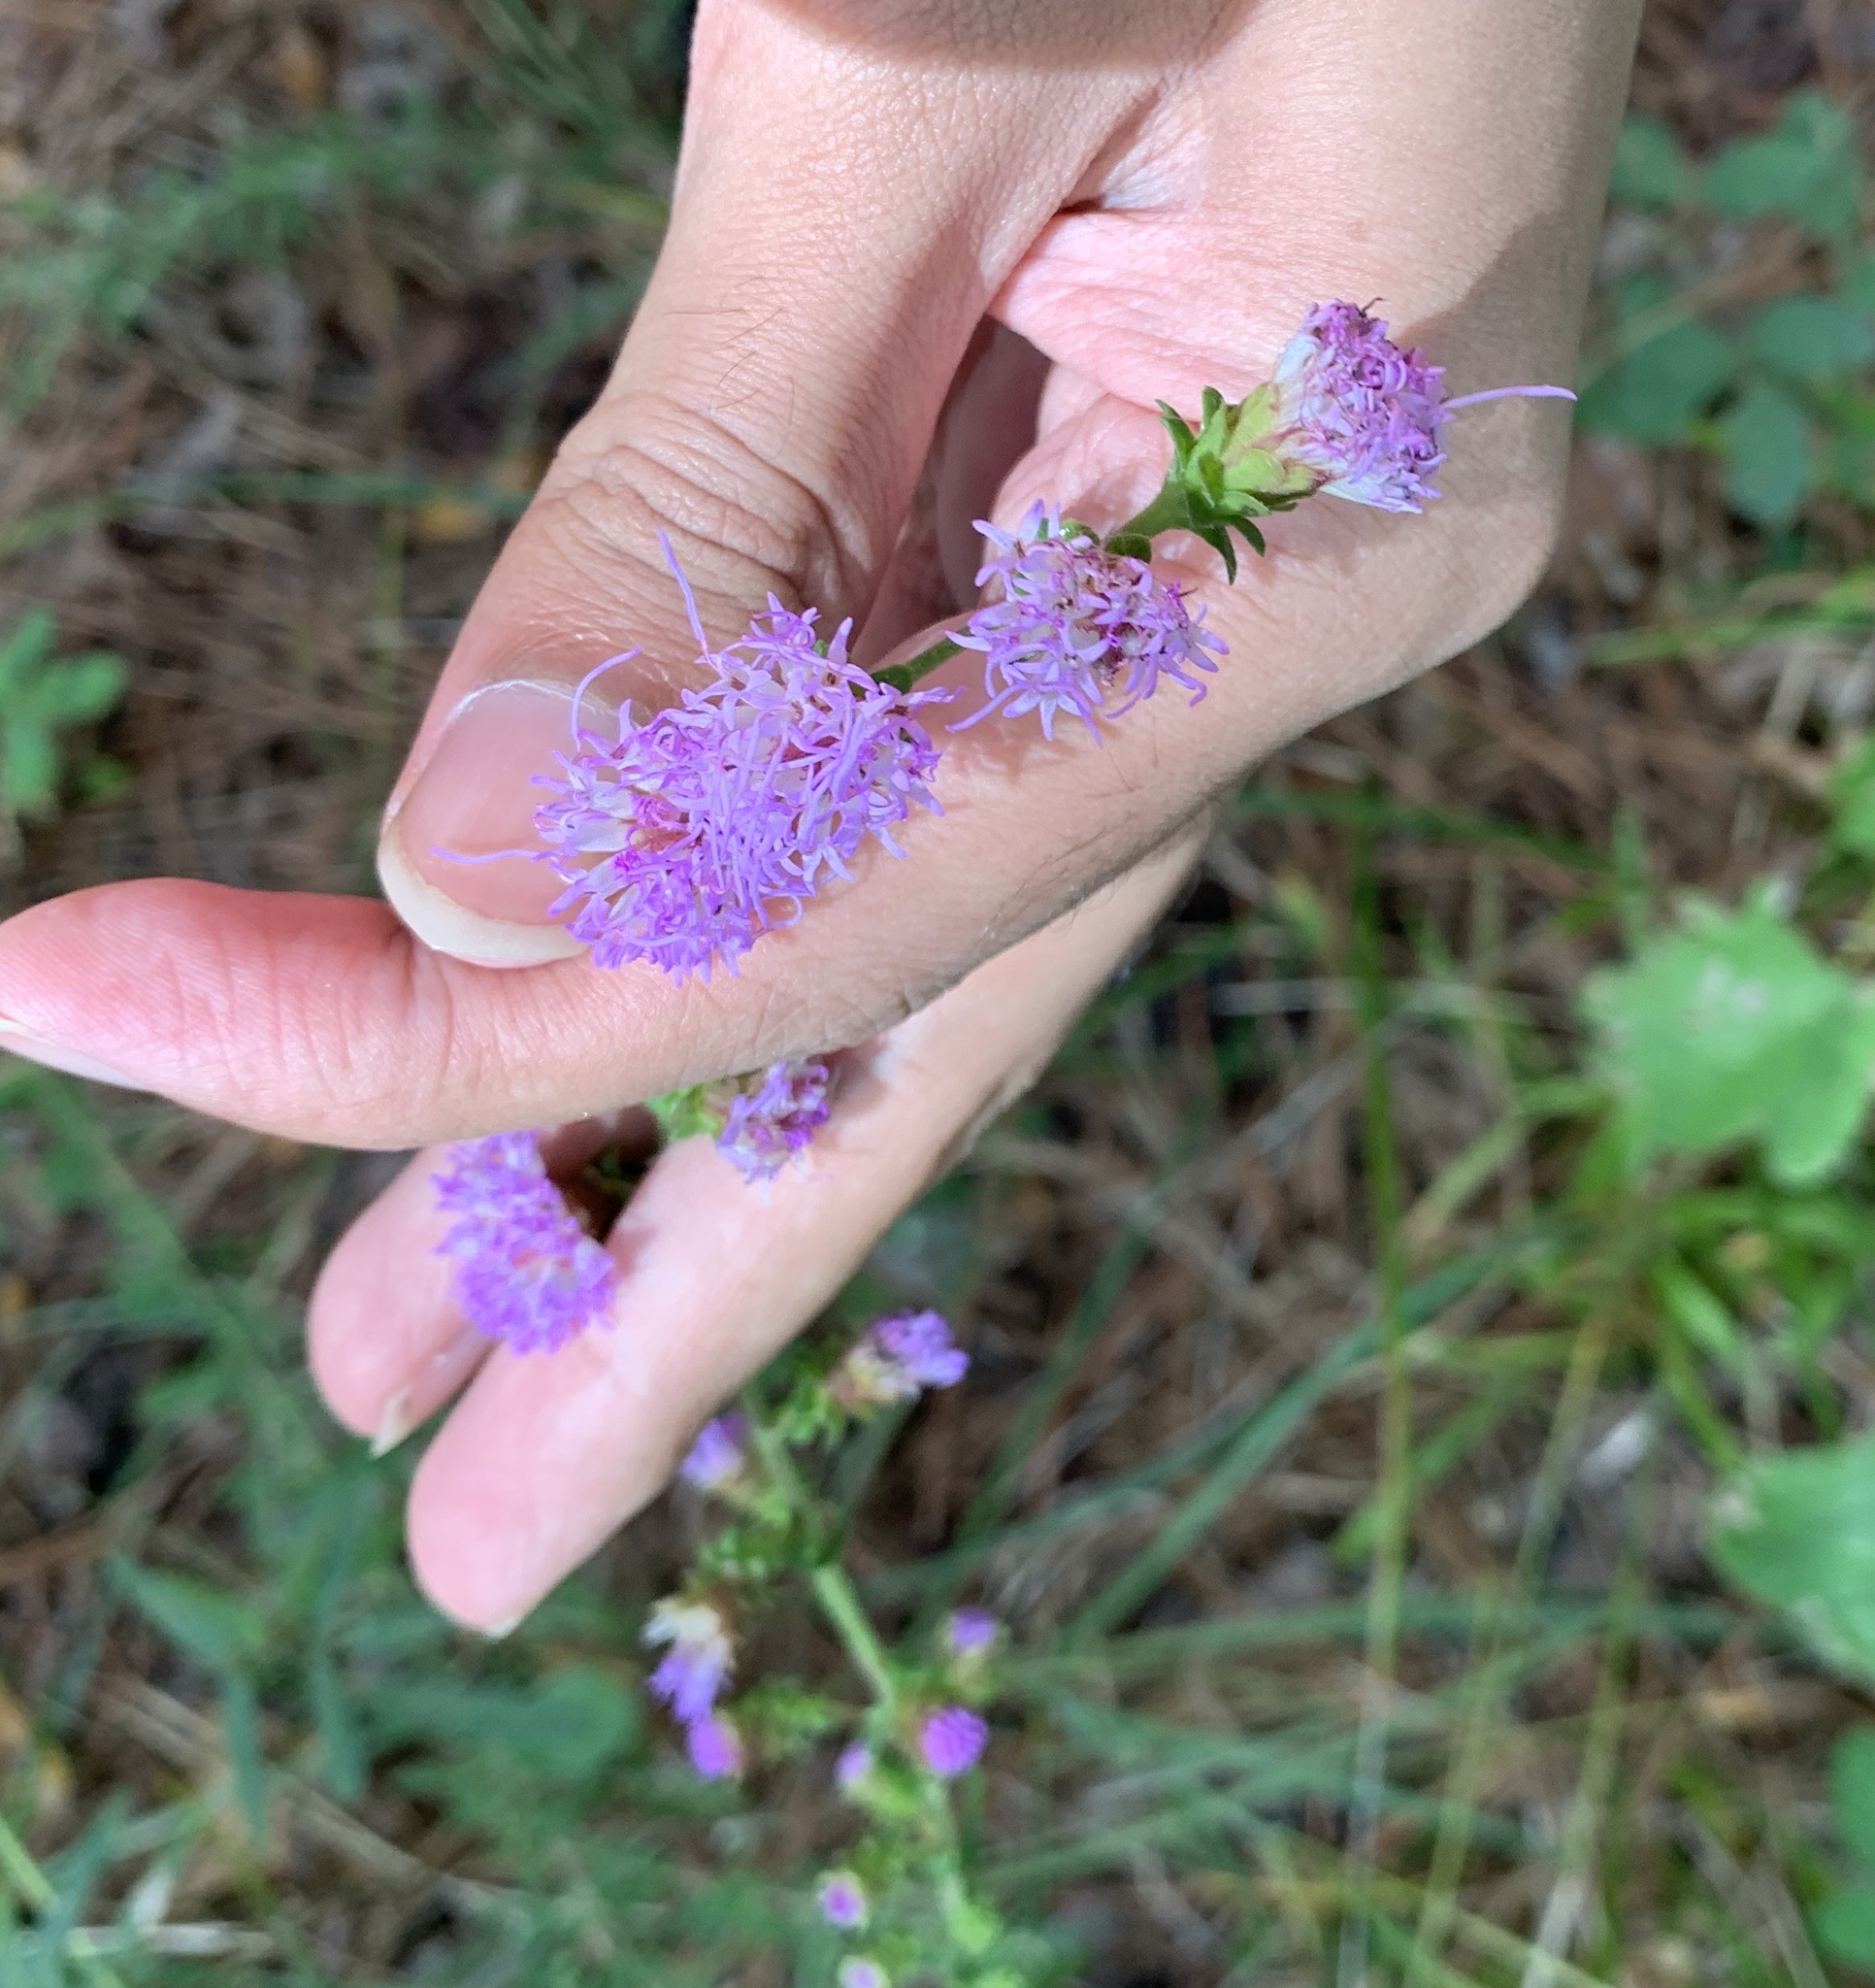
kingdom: Plantae
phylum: Tracheophyta
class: Magnoliopsida
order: Asterales
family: Asteraceae
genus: Liatris
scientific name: Liatris squarrulosa
